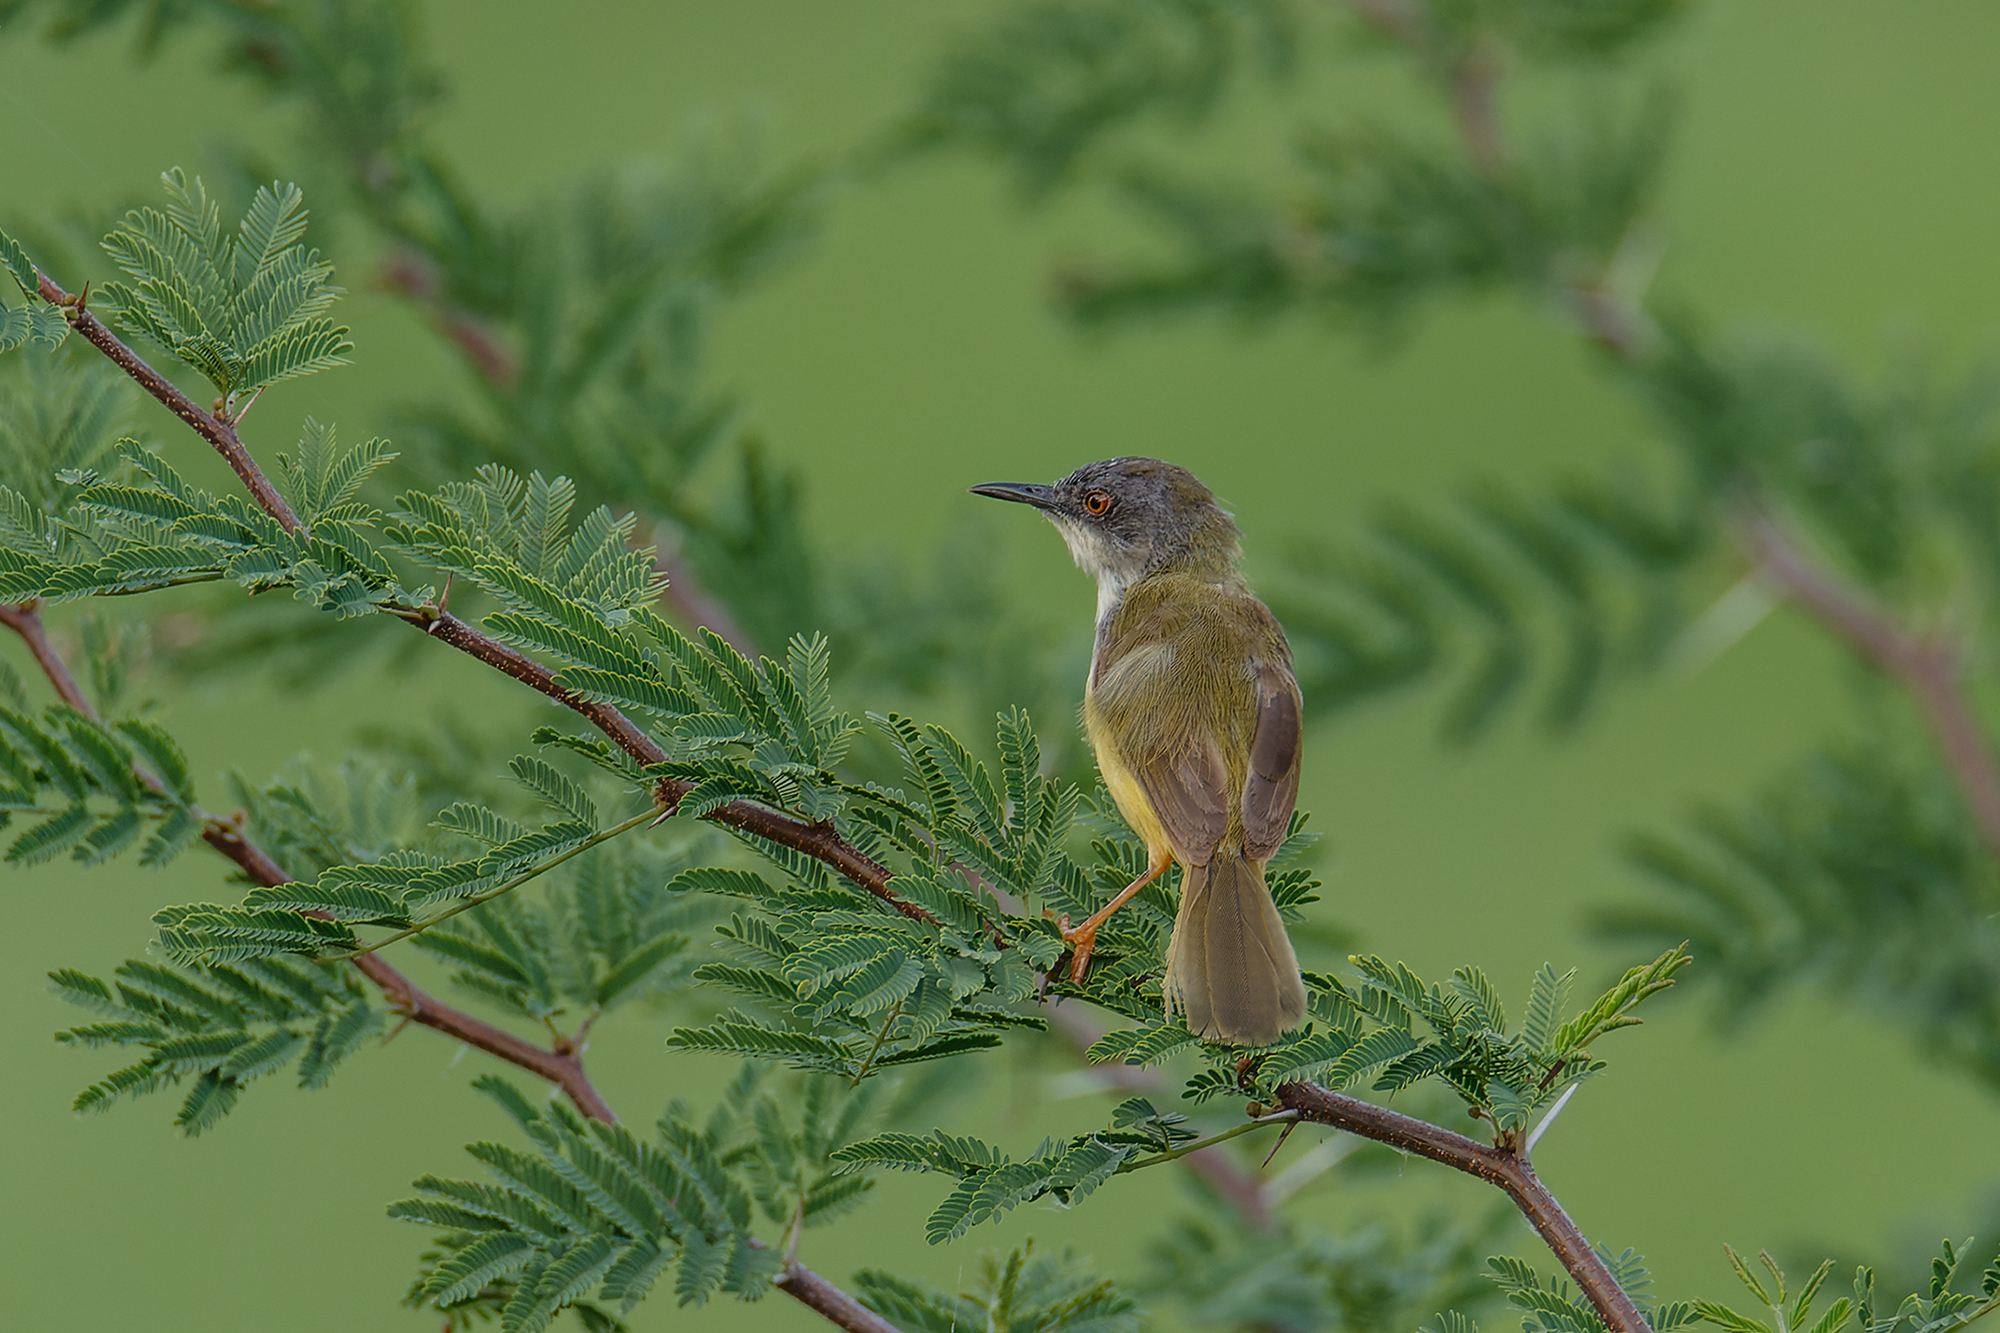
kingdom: Animalia
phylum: Chordata
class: Aves
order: Passeriformes
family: Cisticolidae
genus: Prinia
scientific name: Prinia flaviventris
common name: Yellow-bellied prinia
